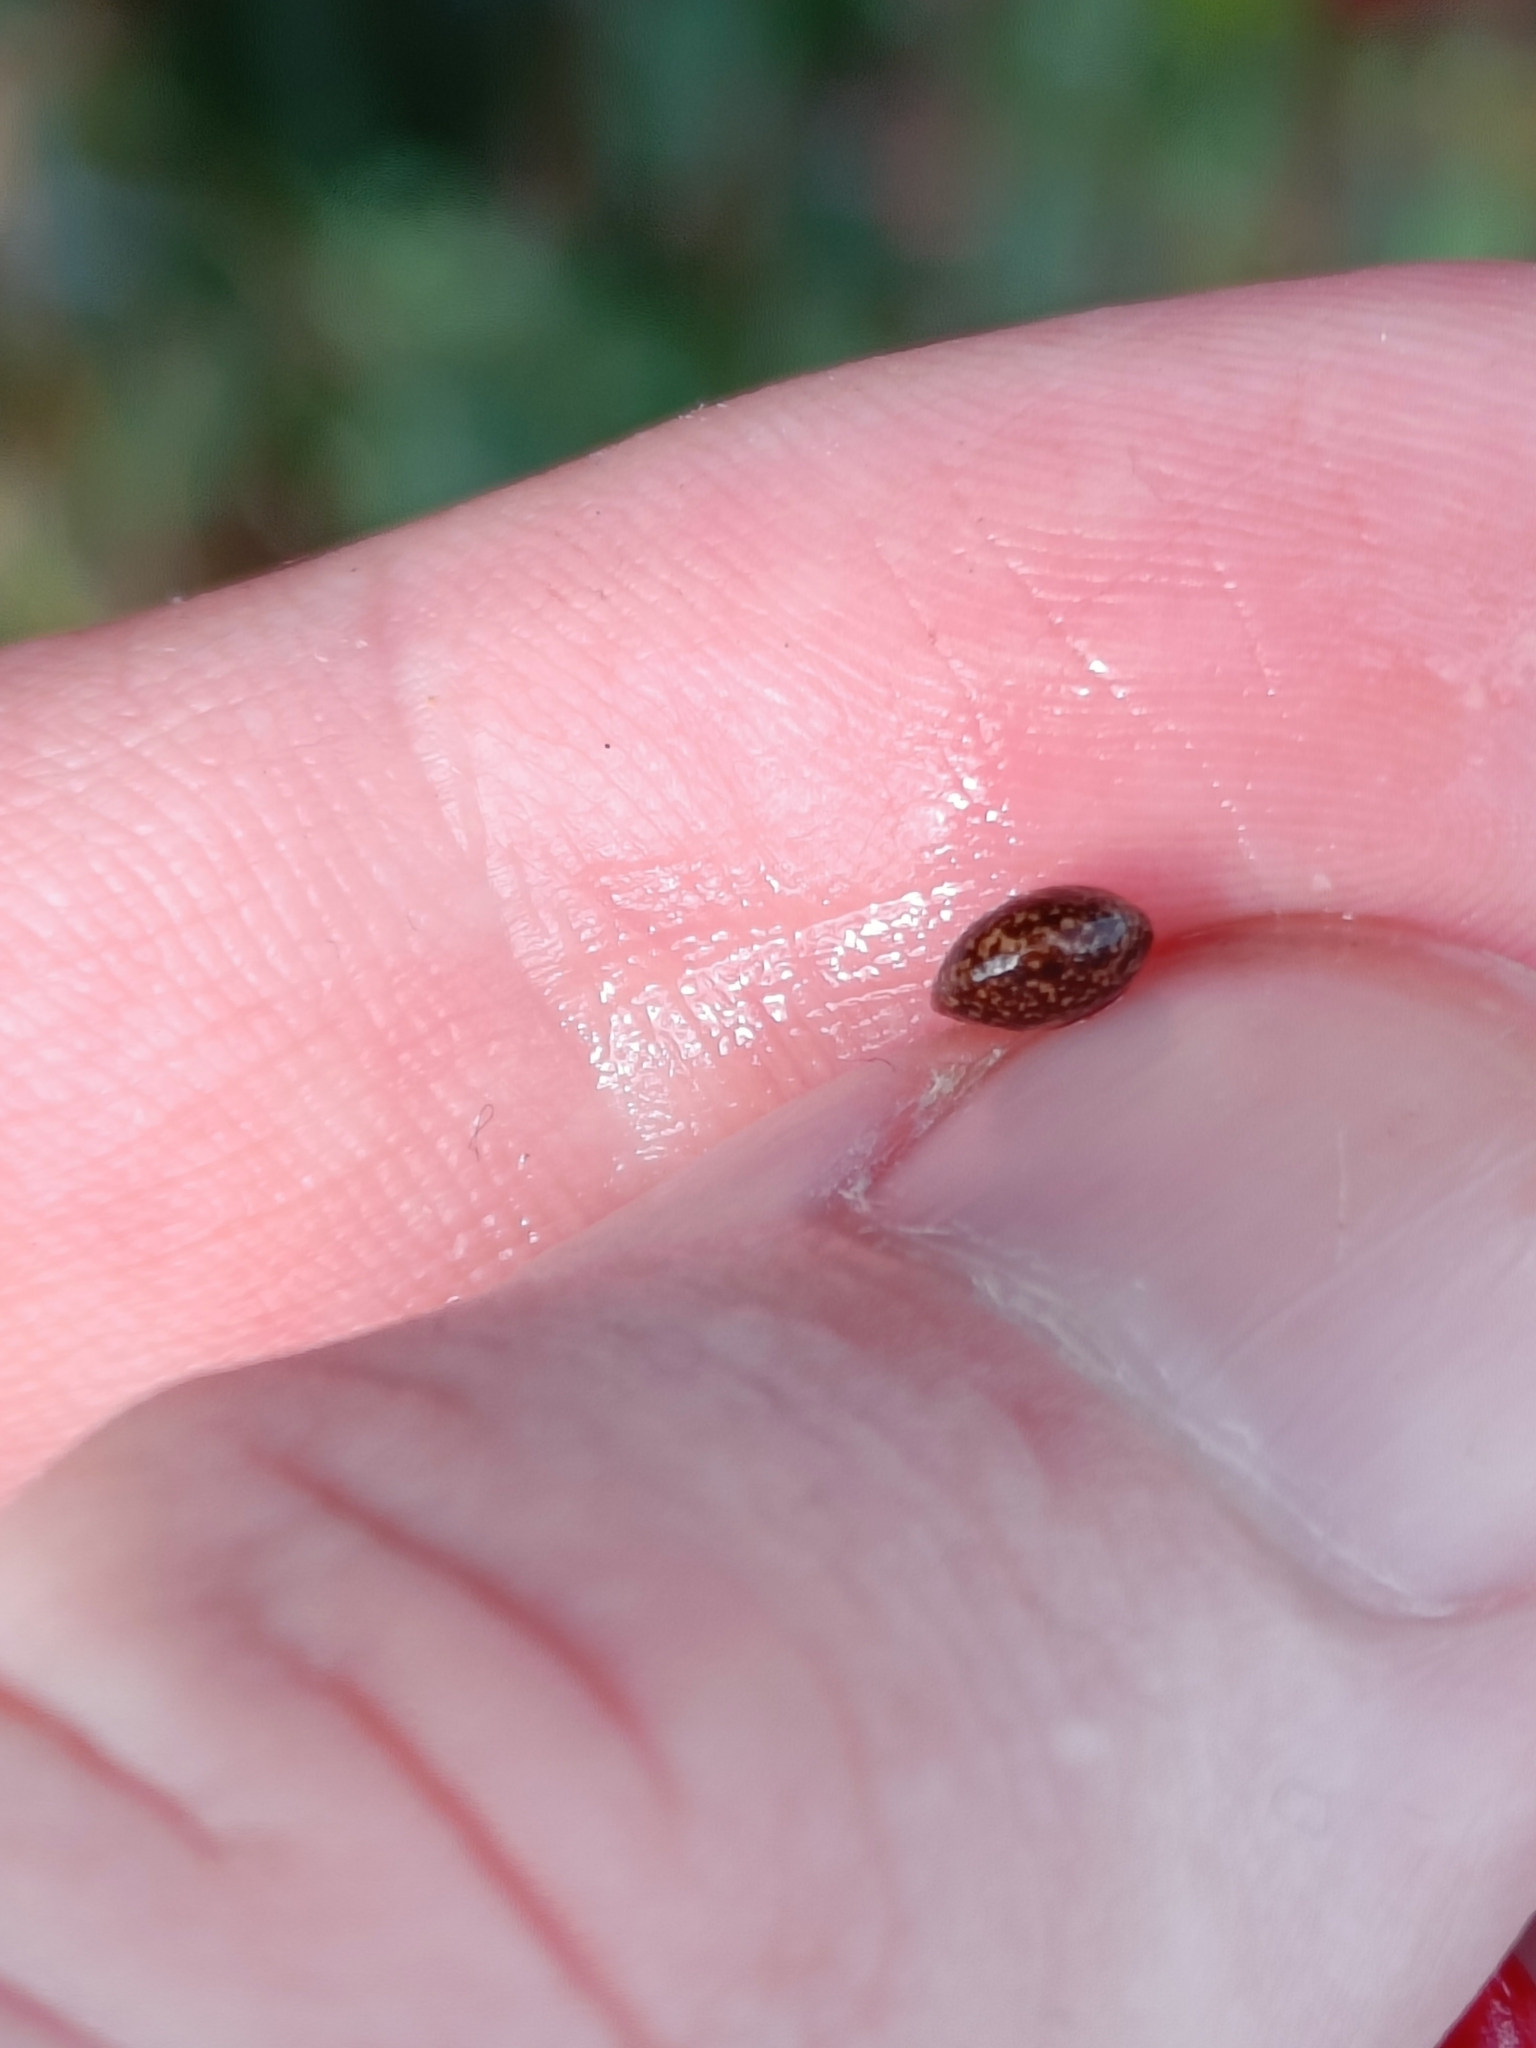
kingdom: Plantae
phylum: Tracheophyta
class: Magnoliopsida
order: Cucurbitales
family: Cucurbitaceae
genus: Bryonia
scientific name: Bryonia cretica
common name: Cretan bryony
